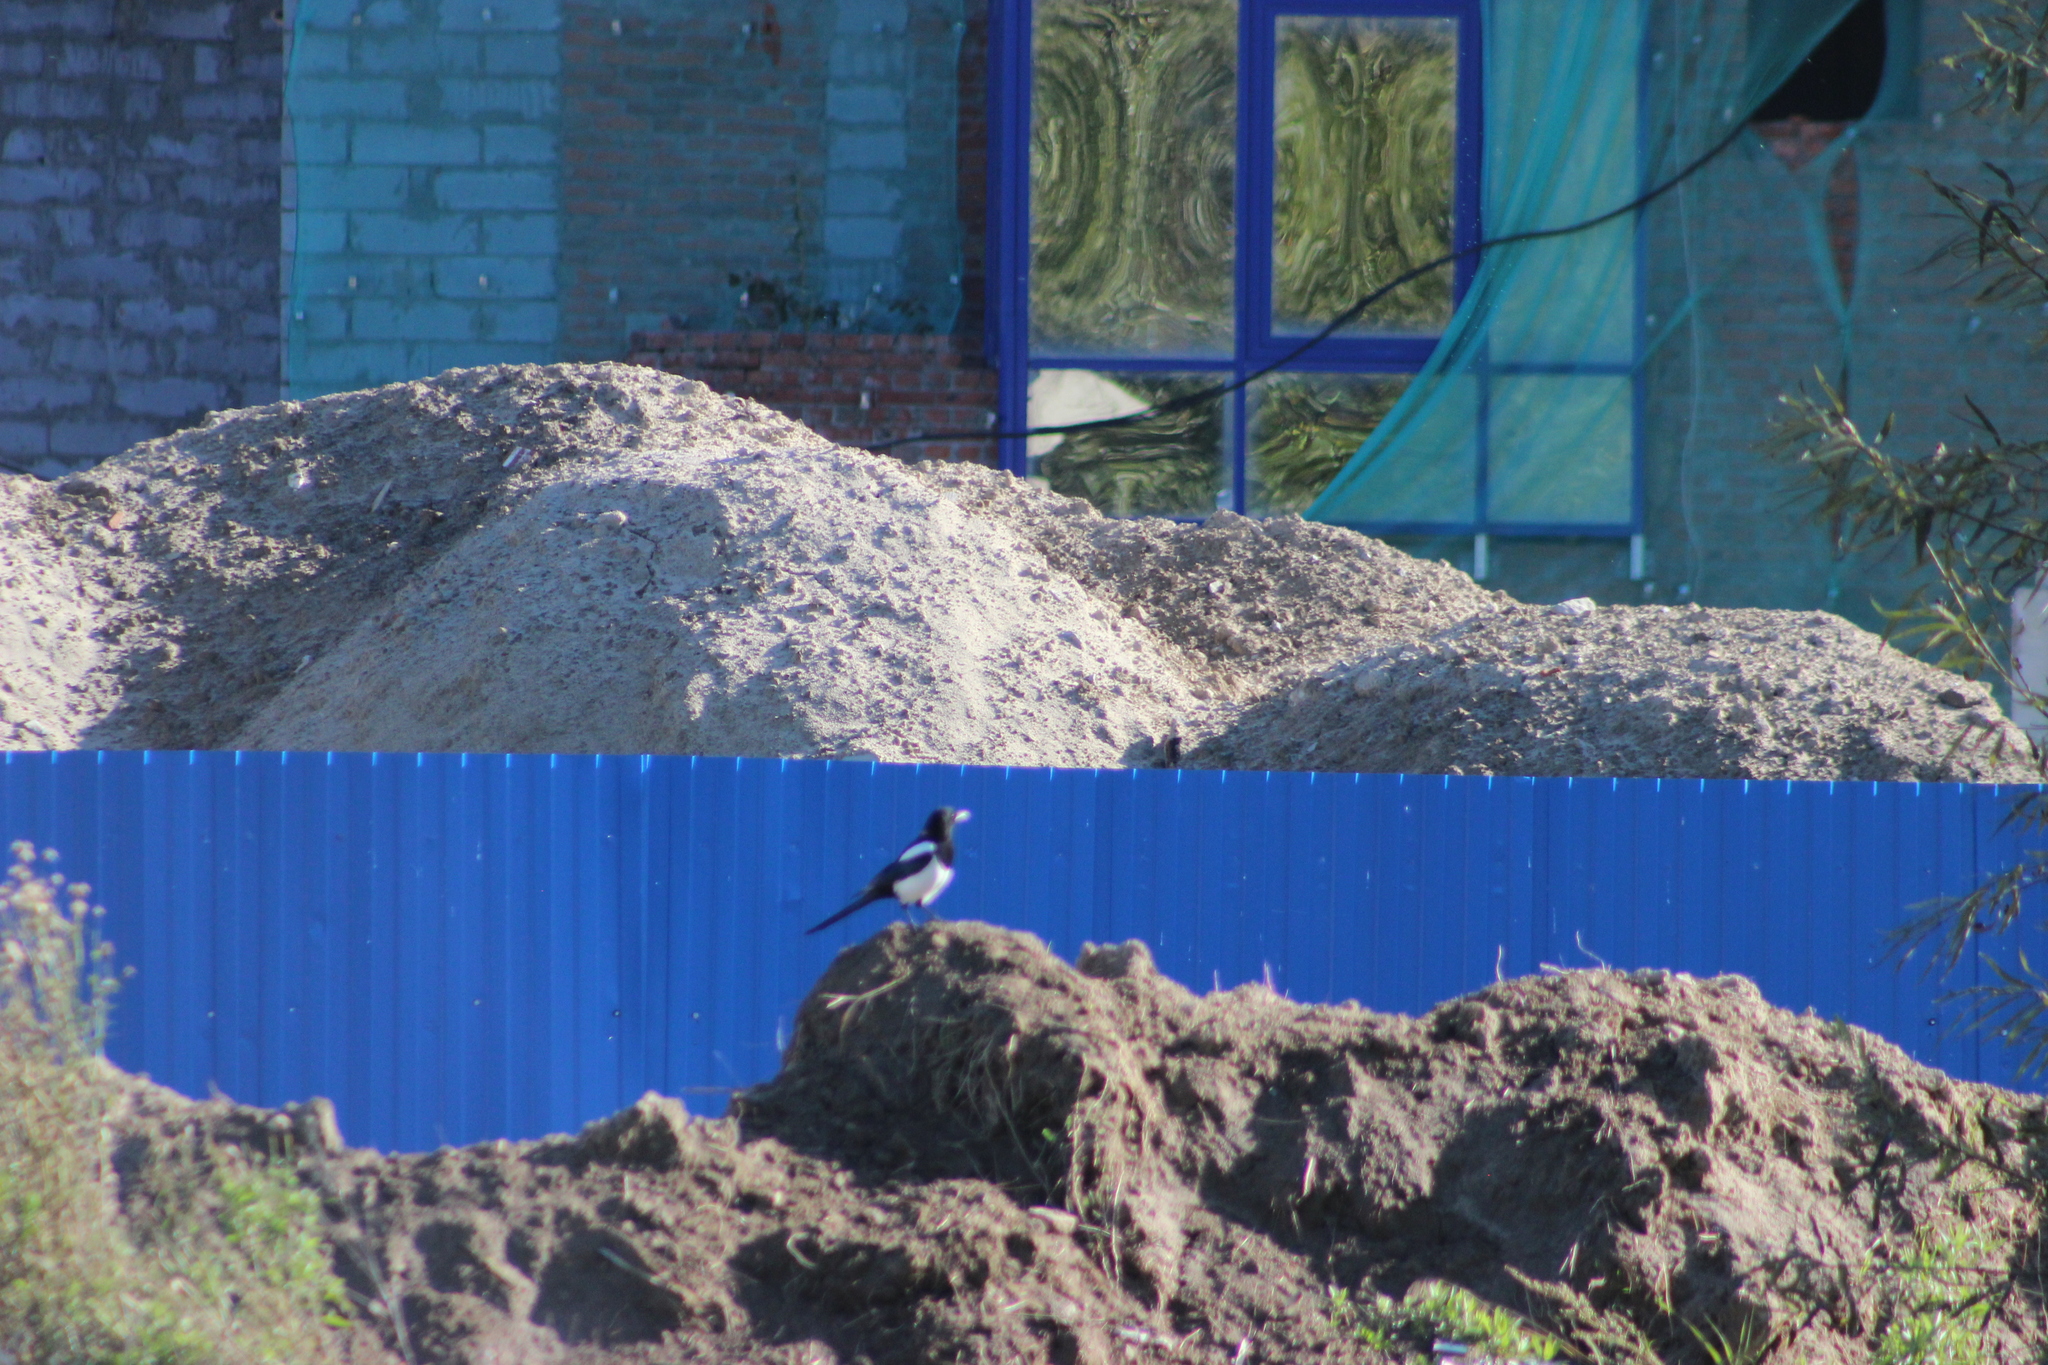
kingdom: Animalia
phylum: Chordata
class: Aves
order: Passeriformes
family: Corvidae
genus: Pica
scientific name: Pica pica
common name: Eurasian magpie
